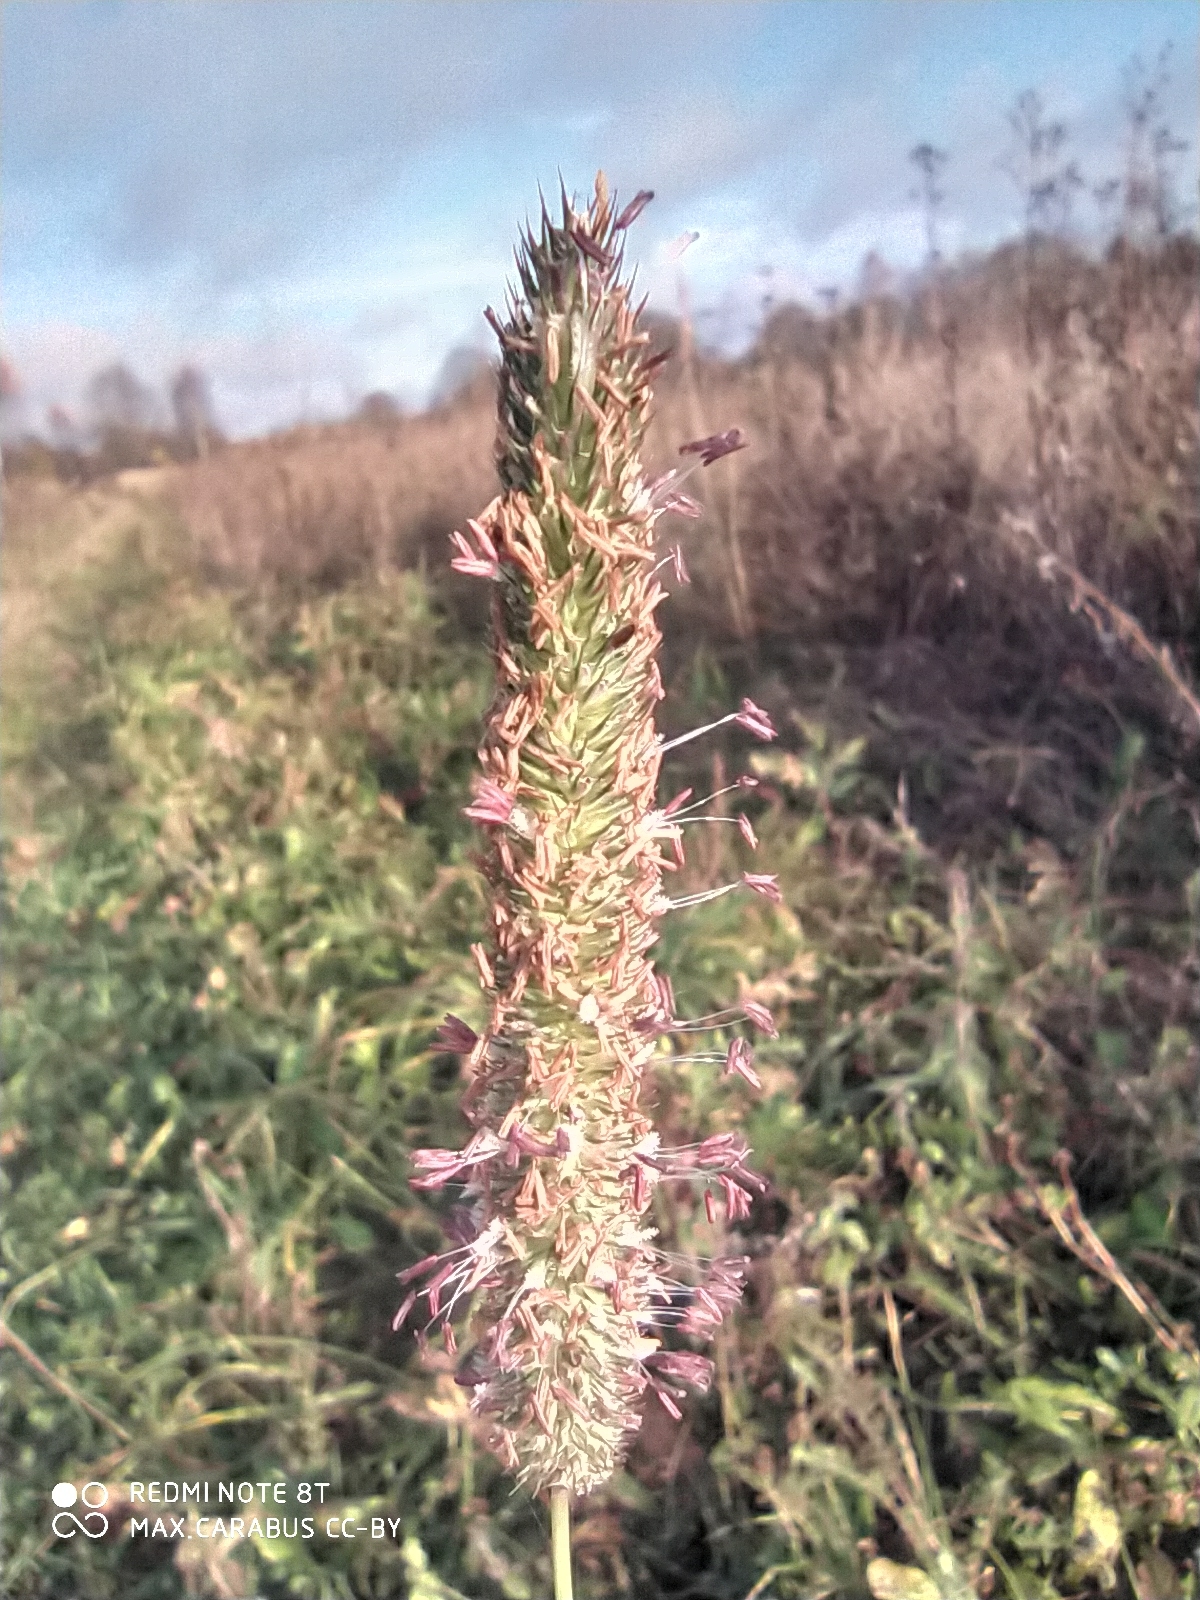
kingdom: Plantae
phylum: Tracheophyta
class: Liliopsida
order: Poales
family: Poaceae
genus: Phleum
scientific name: Phleum pratense
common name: Timothy grass
